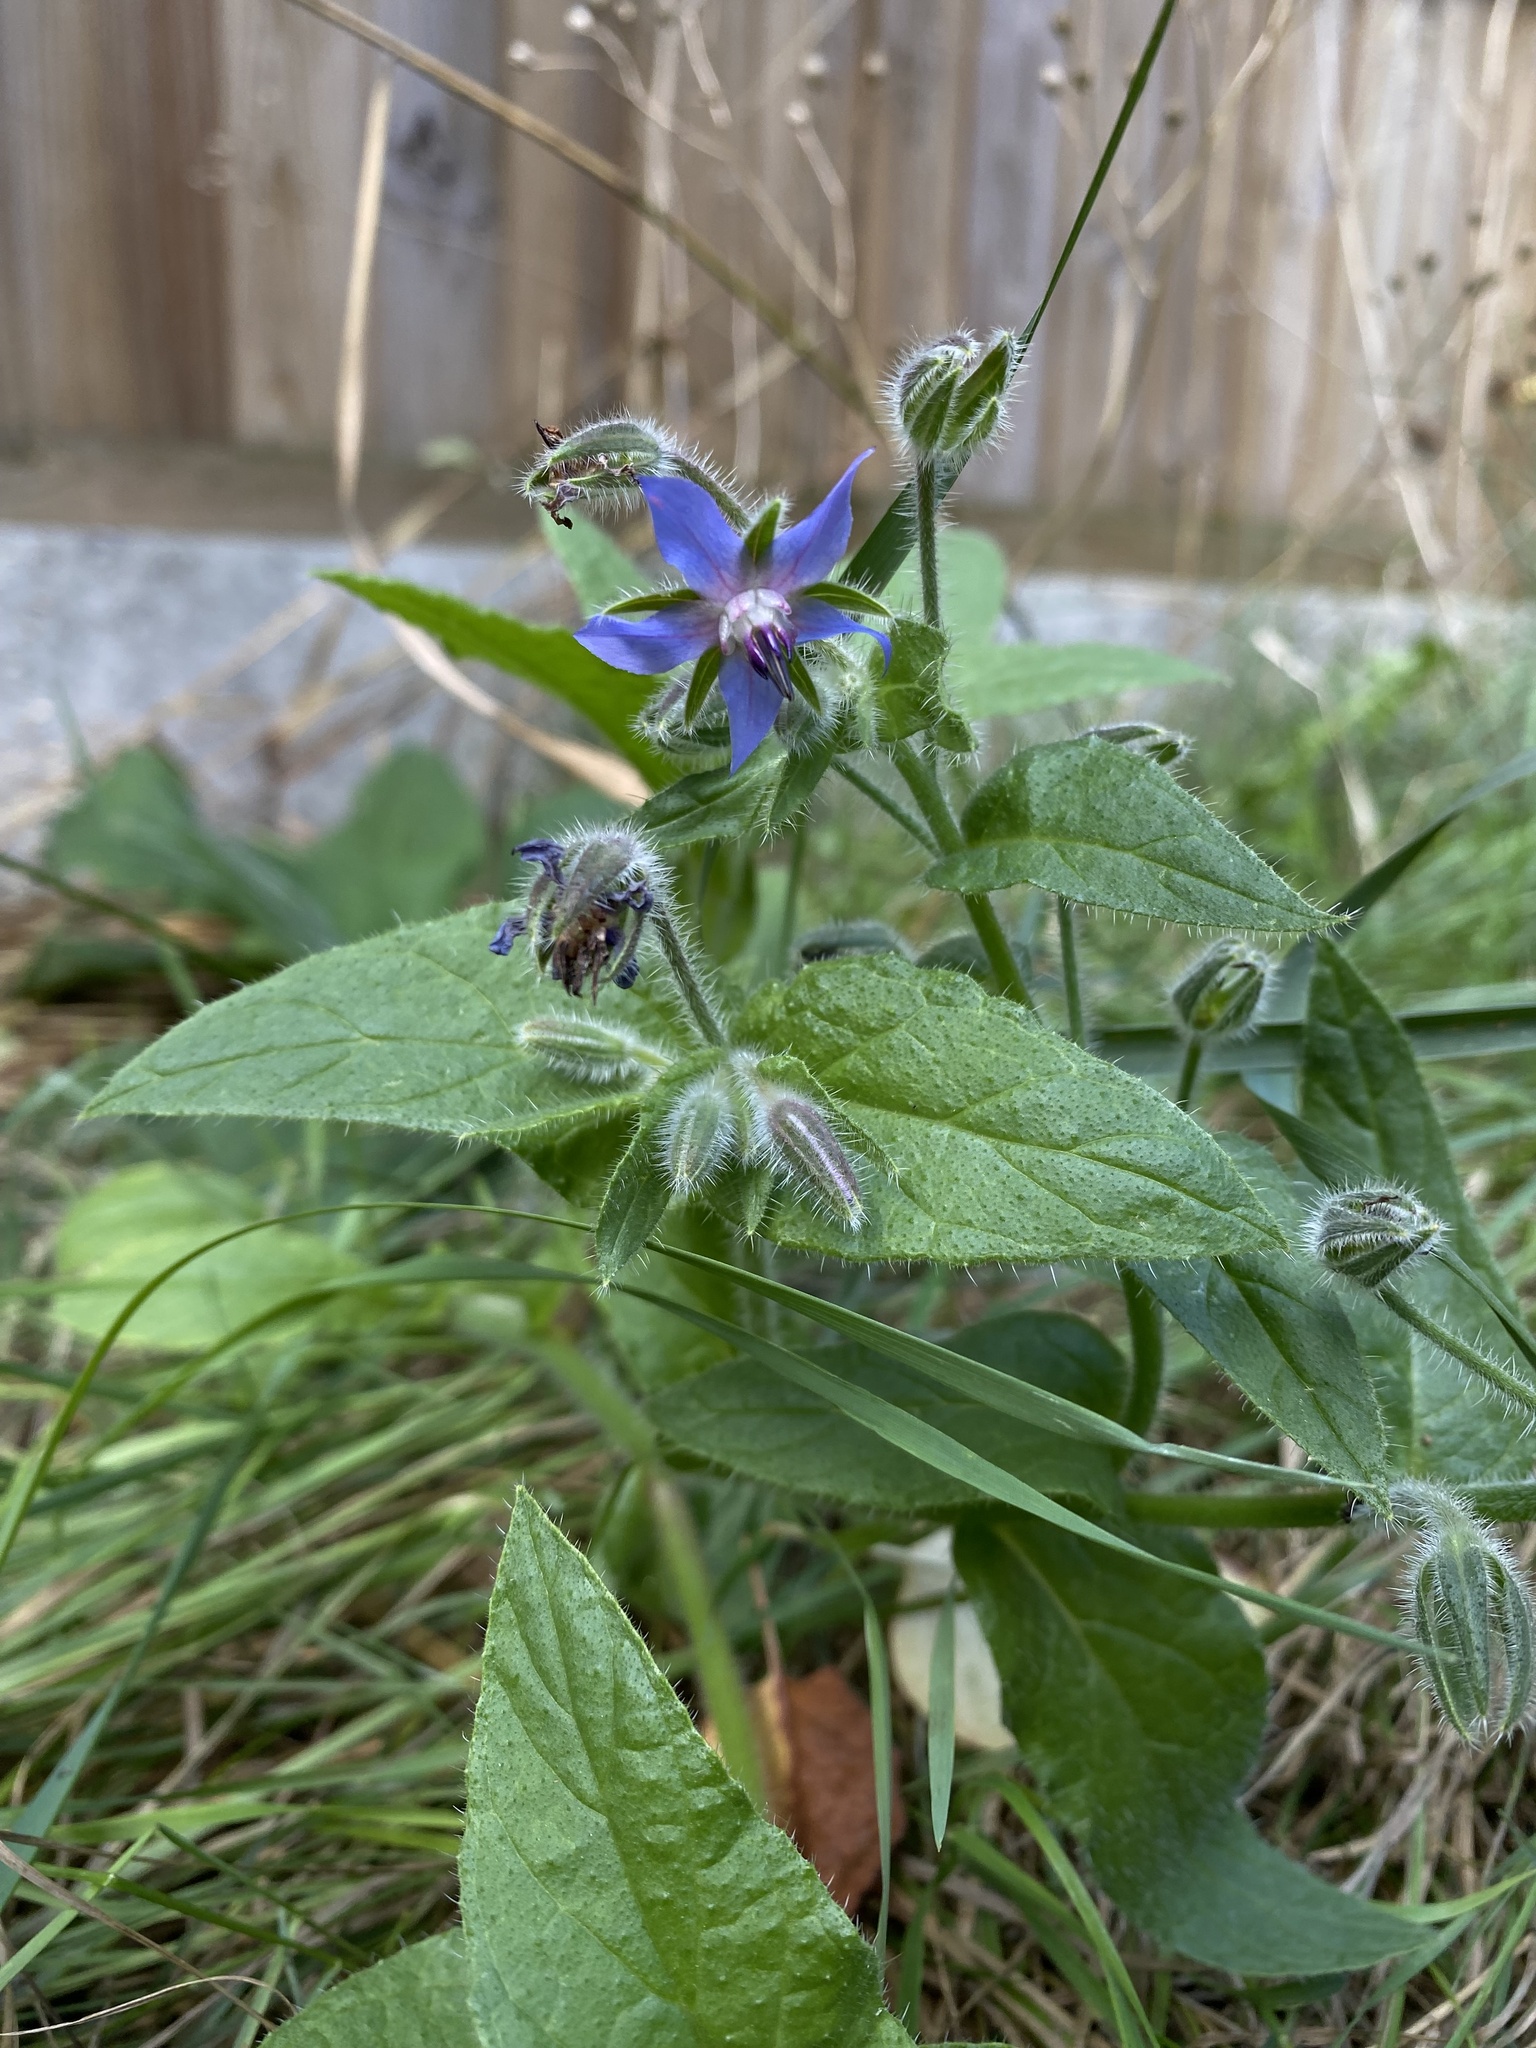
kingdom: Plantae
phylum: Tracheophyta
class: Magnoliopsida
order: Boraginales
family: Boraginaceae
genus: Borago
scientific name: Borago officinalis
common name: Borage
